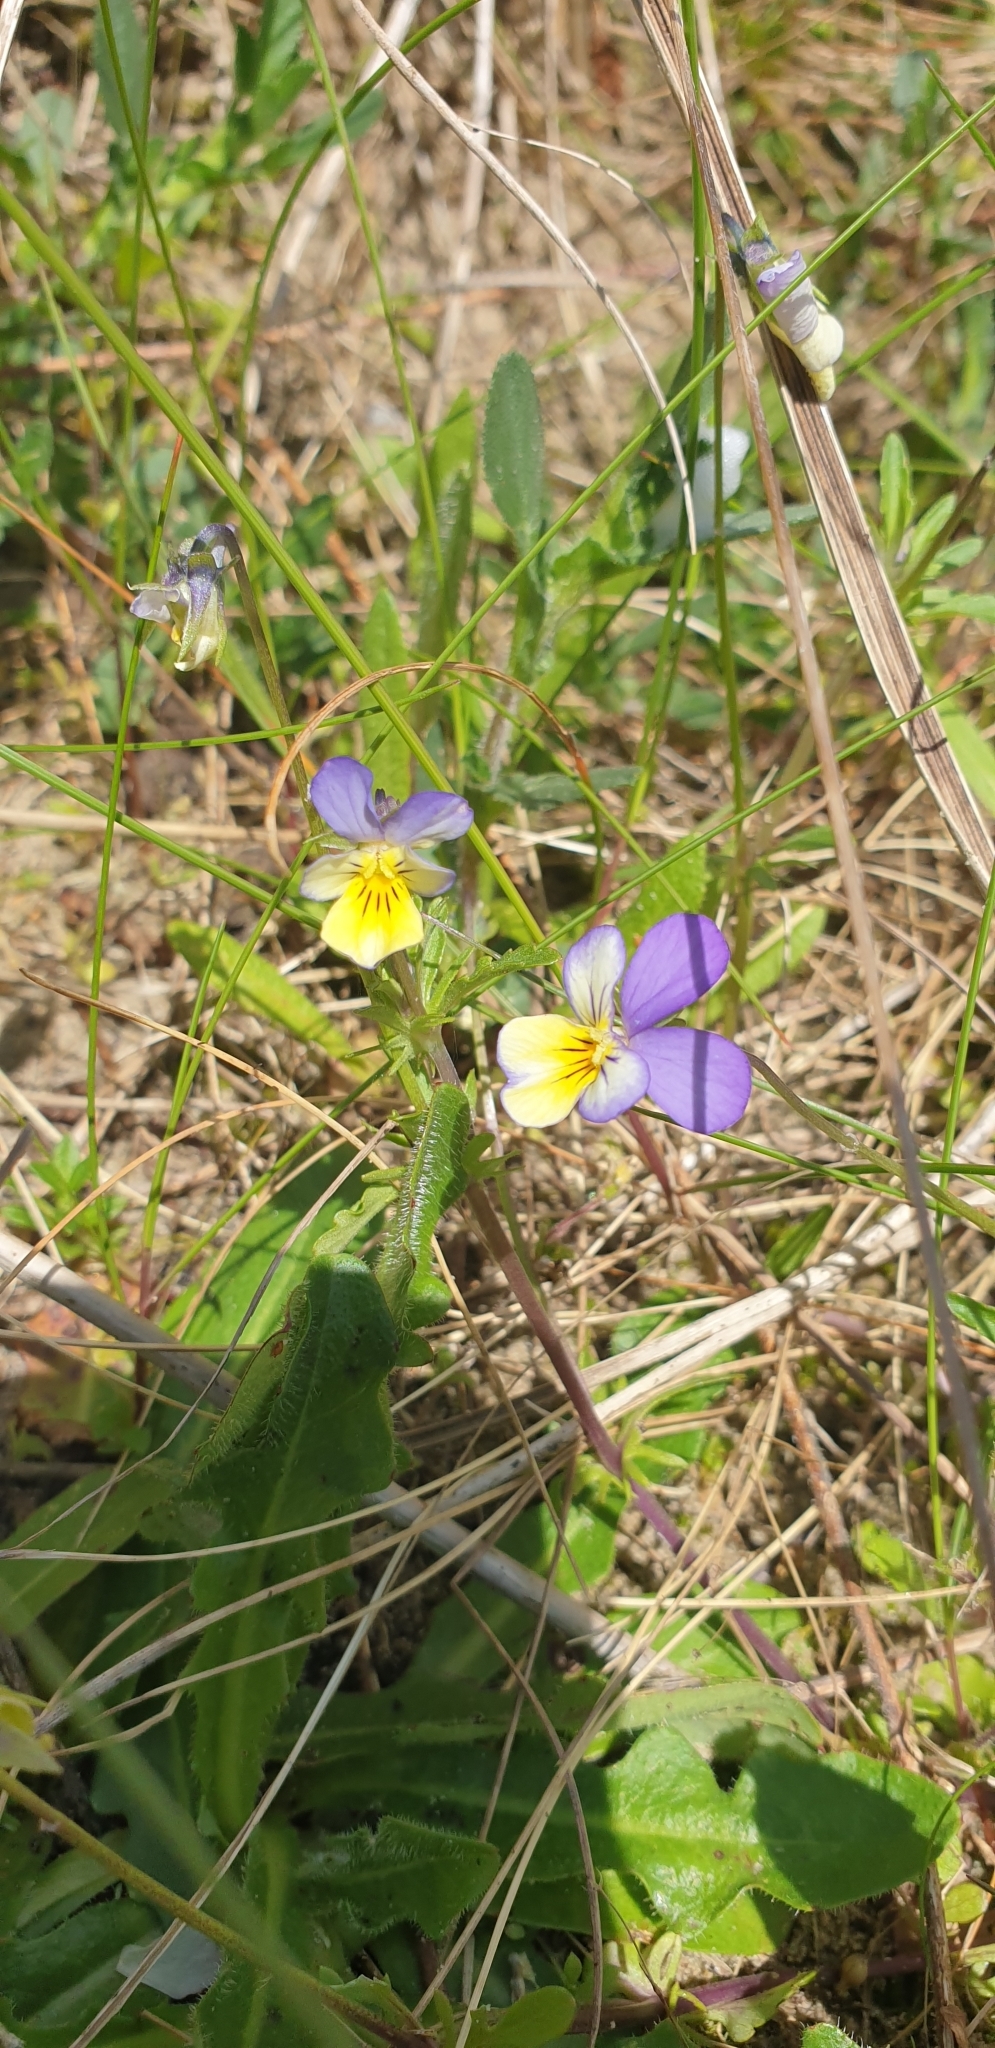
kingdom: Plantae
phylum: Tracheophyta
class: Magnoliopsida
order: Malpighiales
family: Violaceae
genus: Viola
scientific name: Viola tricolor
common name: Pansy
